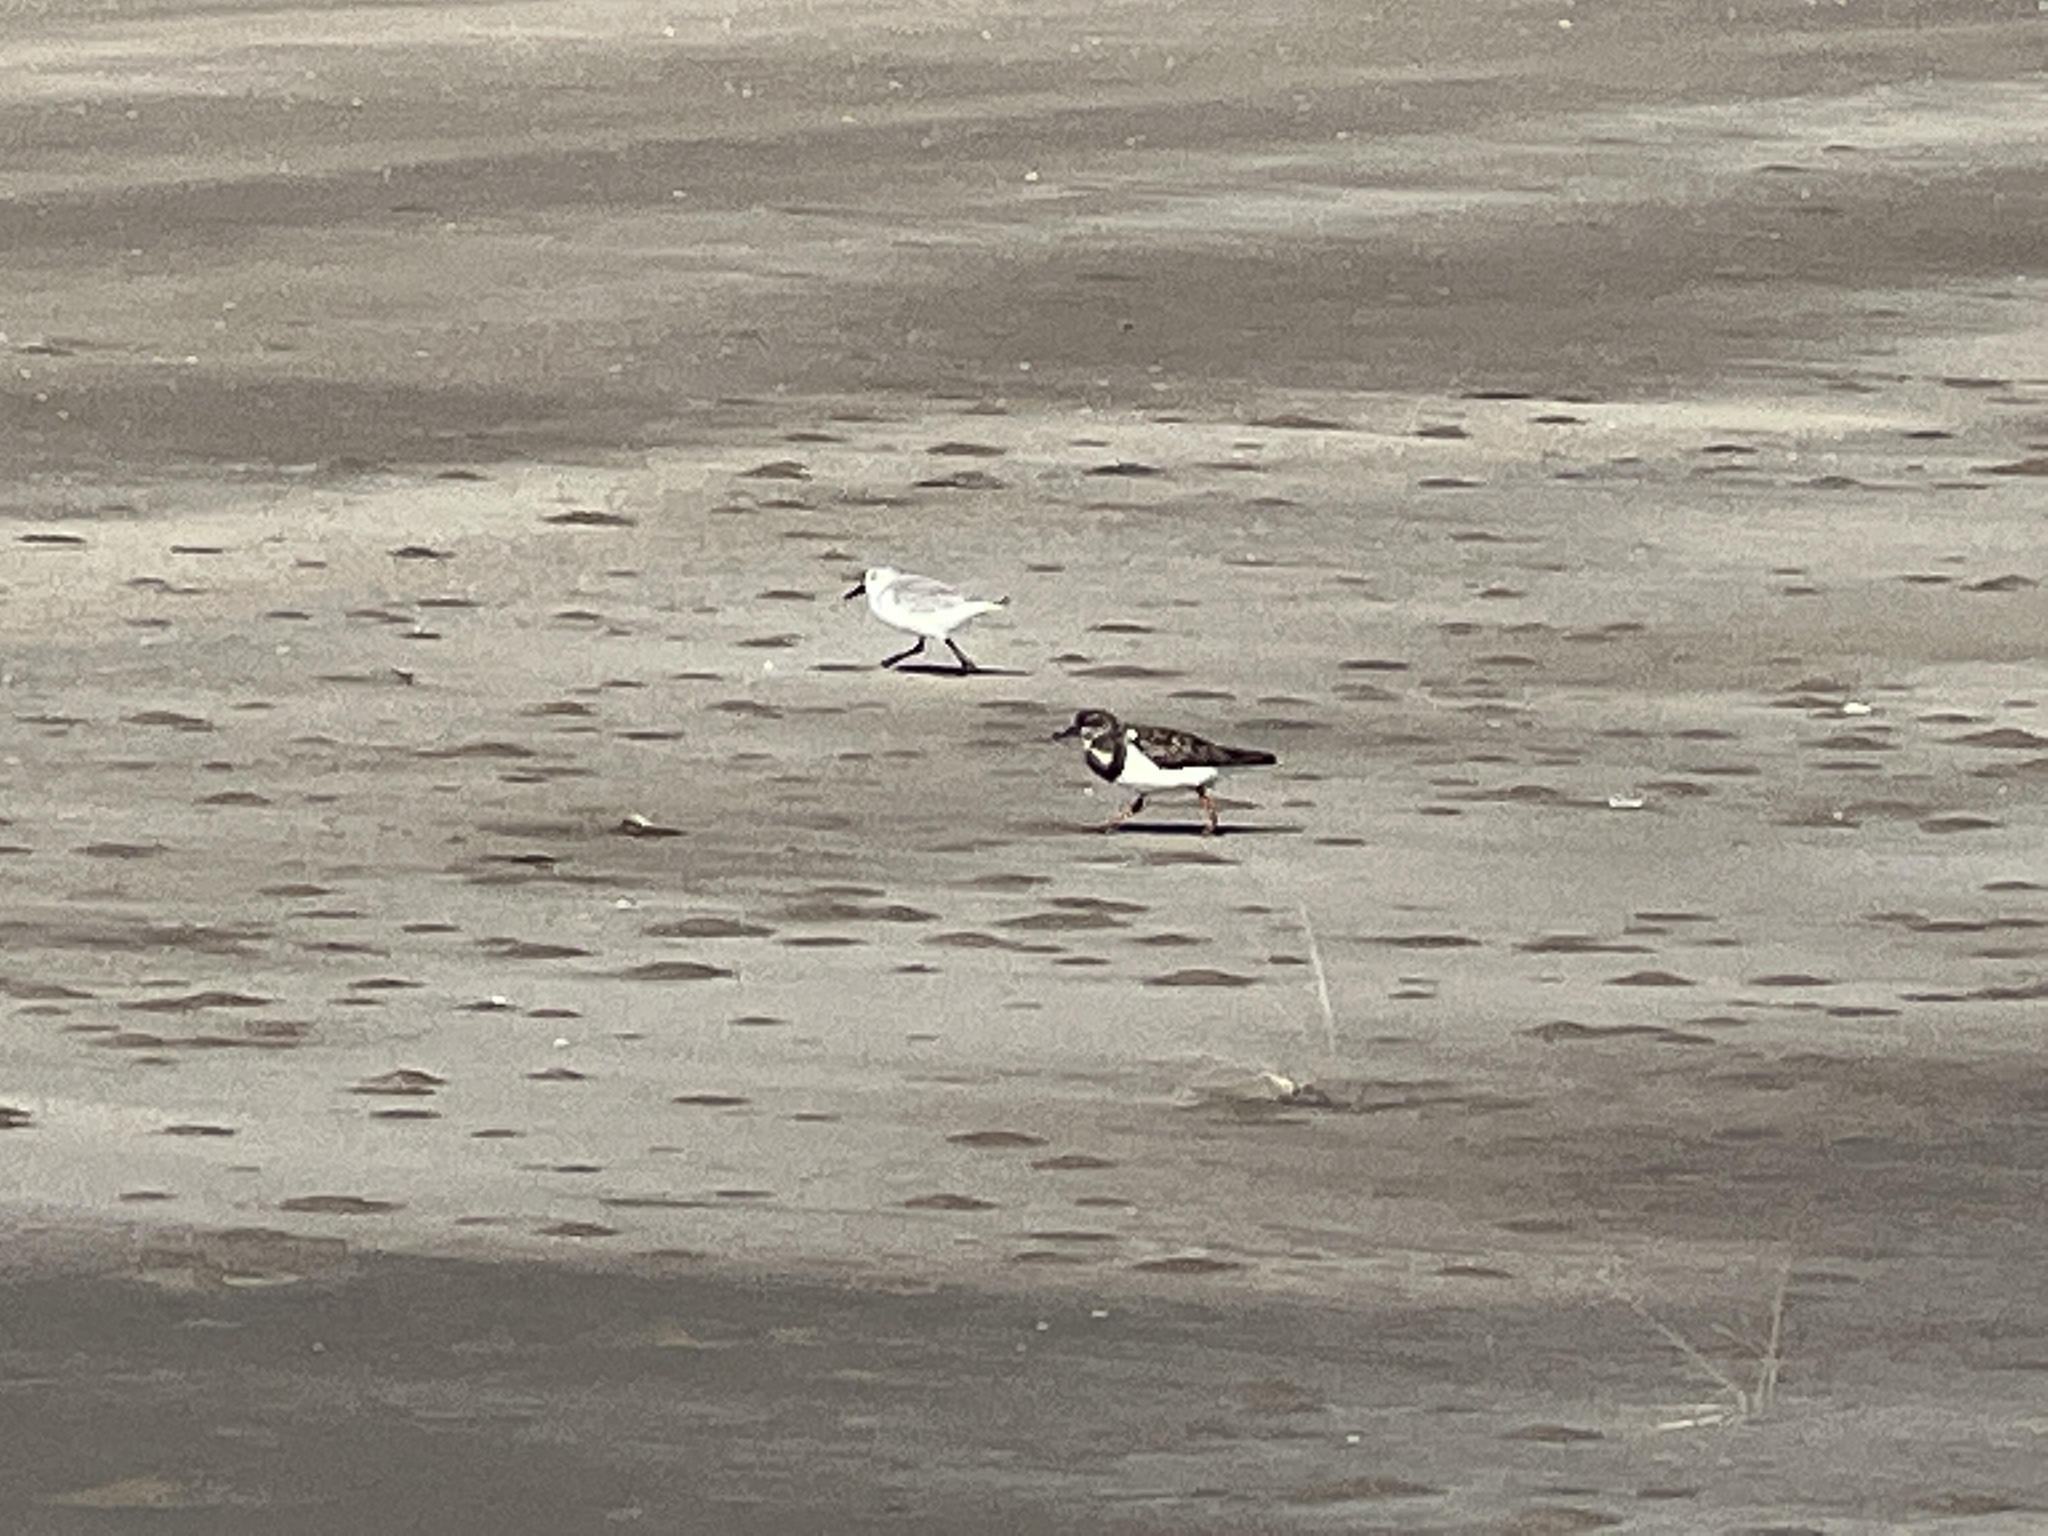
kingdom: Animalia
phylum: Chordata
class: Aves
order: Charadriiformes
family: Scolopacidae
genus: Arenaria
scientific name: Arenaria interpres
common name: Ruddy turnstone
